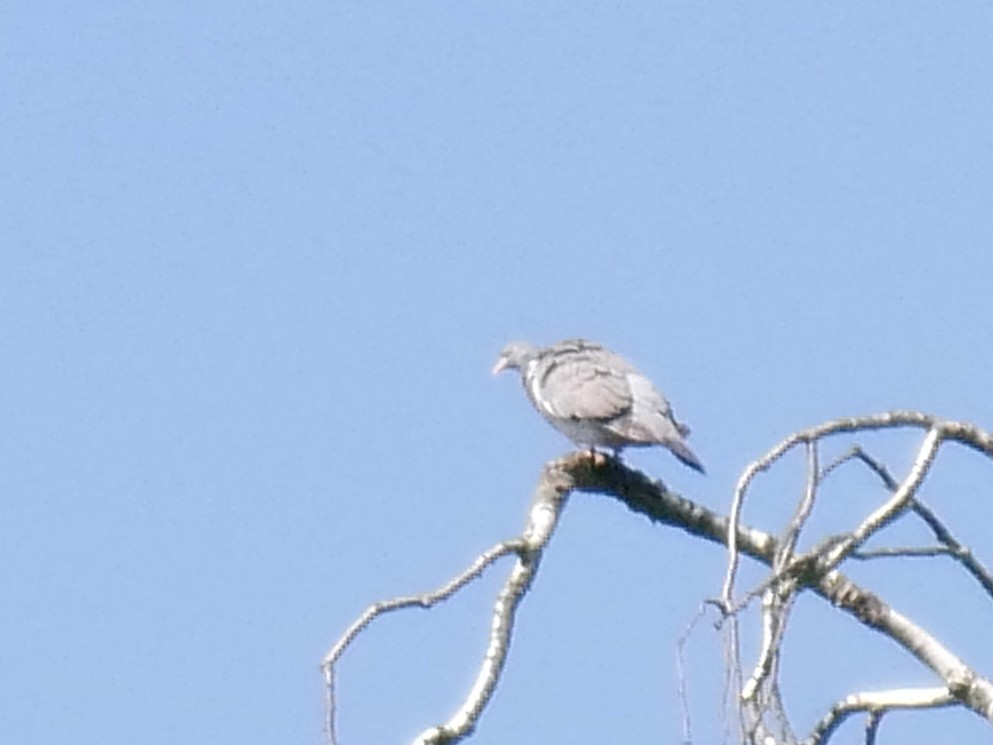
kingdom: Animalia
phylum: Chordata
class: Aves
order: Columbiformes
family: Columbidae
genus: Columba
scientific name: Columba palumbus
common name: Common wood pigeon
